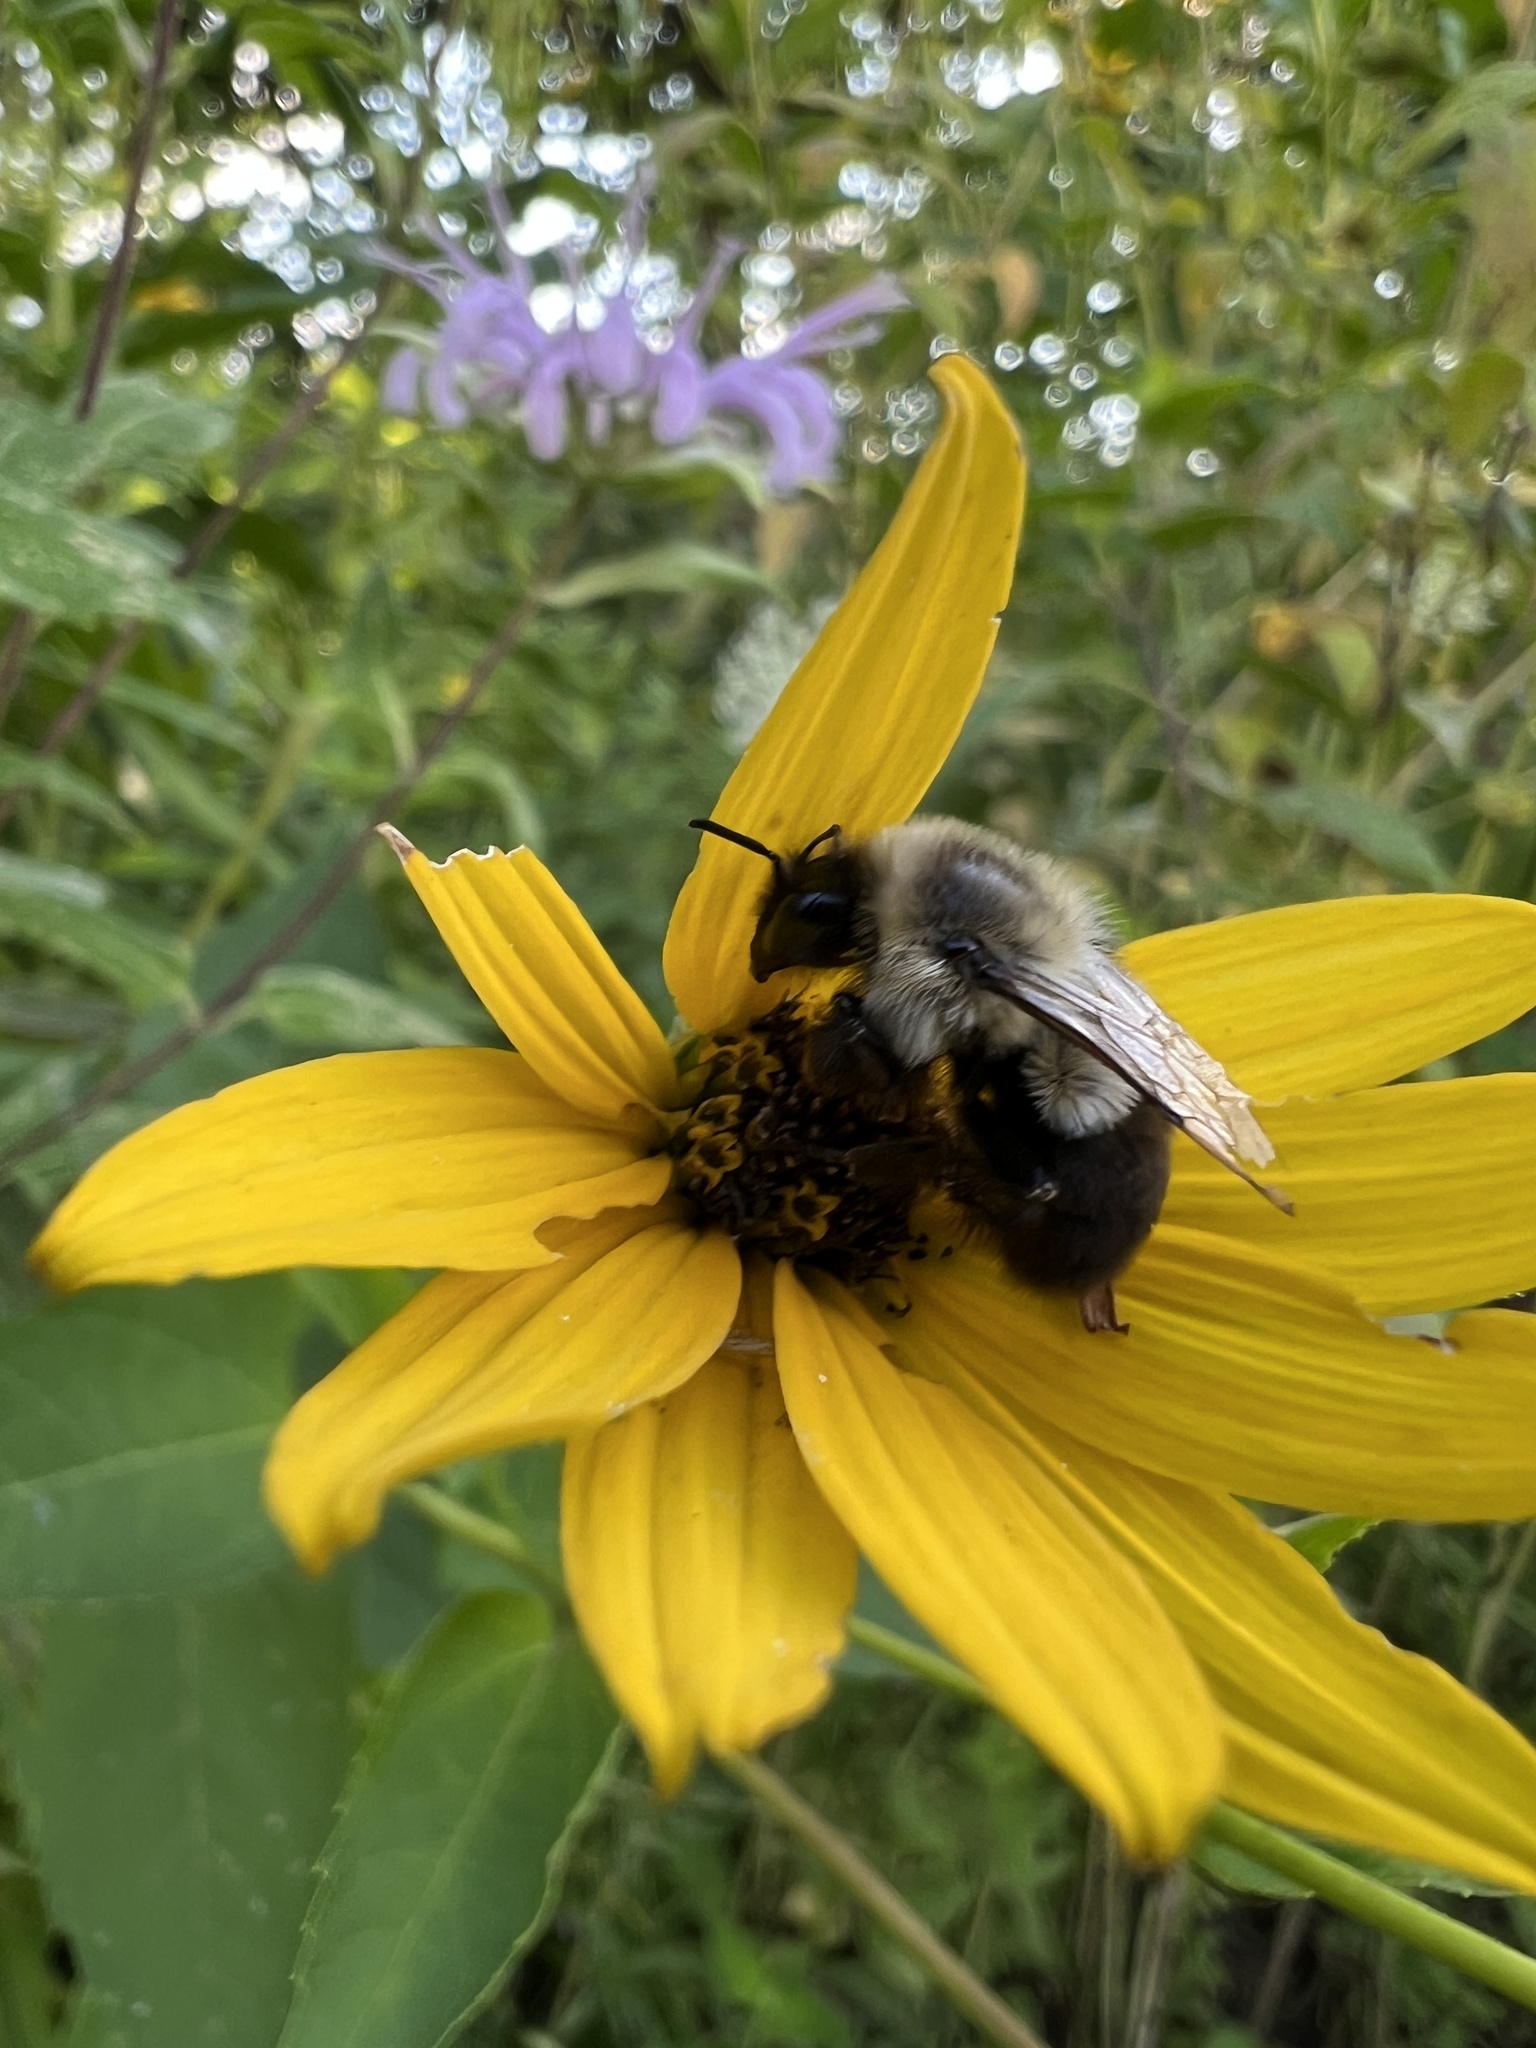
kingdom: Animalia
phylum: Arthropoda
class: Insecta
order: Hymenoptera
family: Apidae
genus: Bombus
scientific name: Bombus impatiens
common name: Common eastern bumble bee
